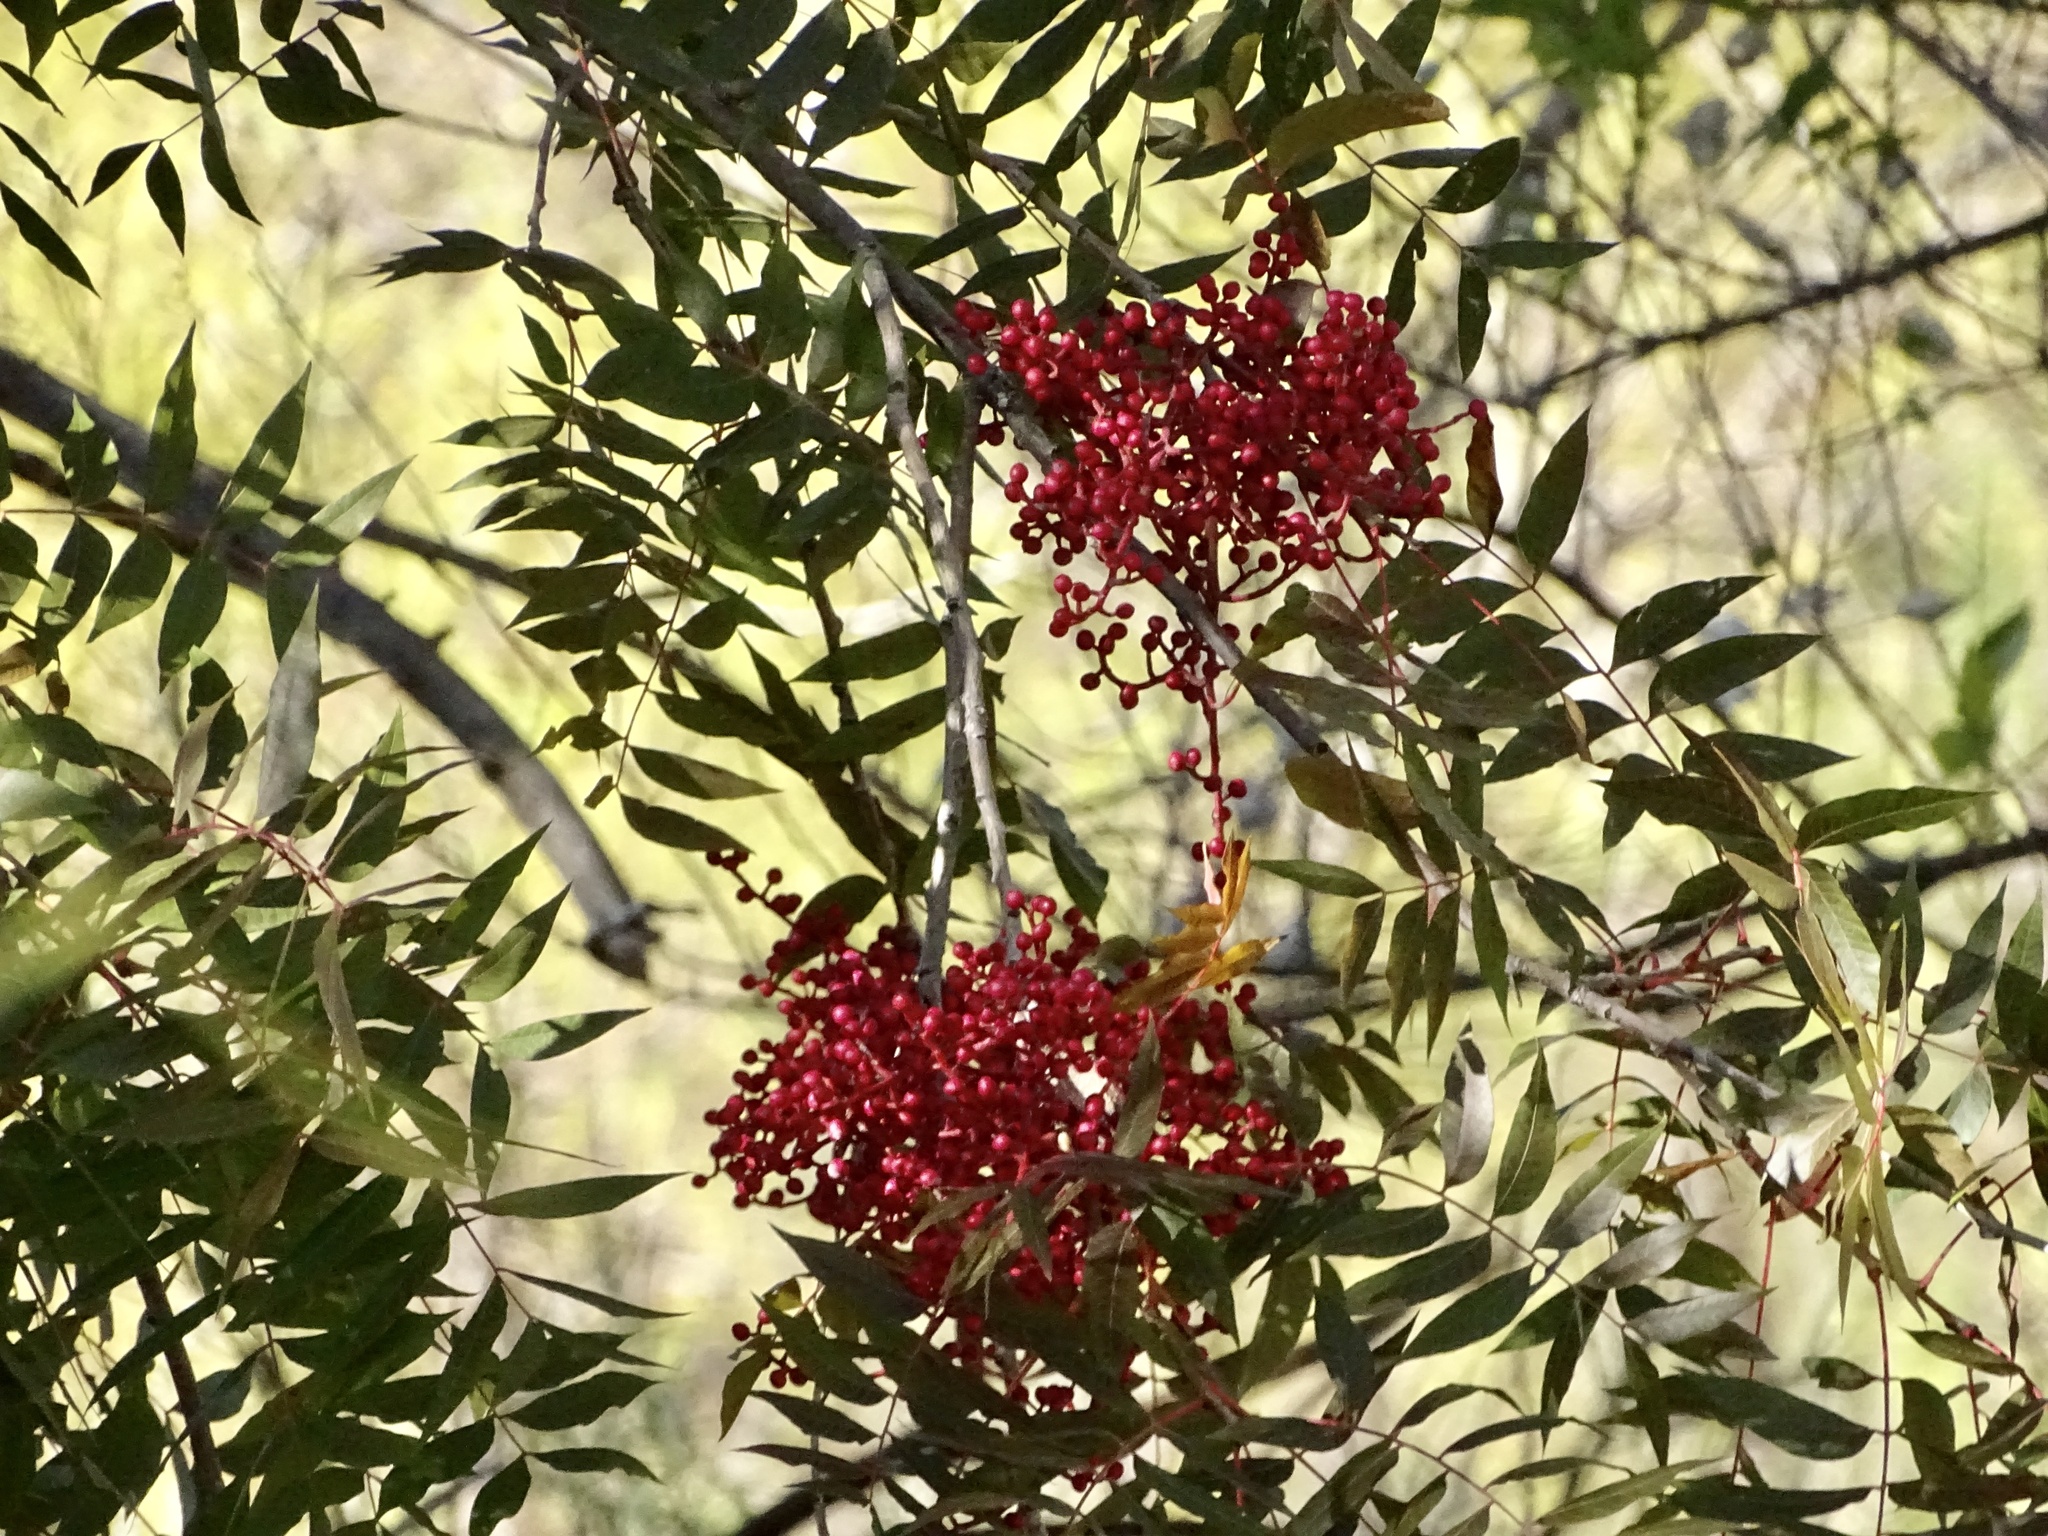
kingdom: Plantae
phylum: Tracheophyta
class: Magnoliopsida
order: Sapindales
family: Anacardiaceae
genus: Pistacia
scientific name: Pistacia chinensis
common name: Chinese pistache
